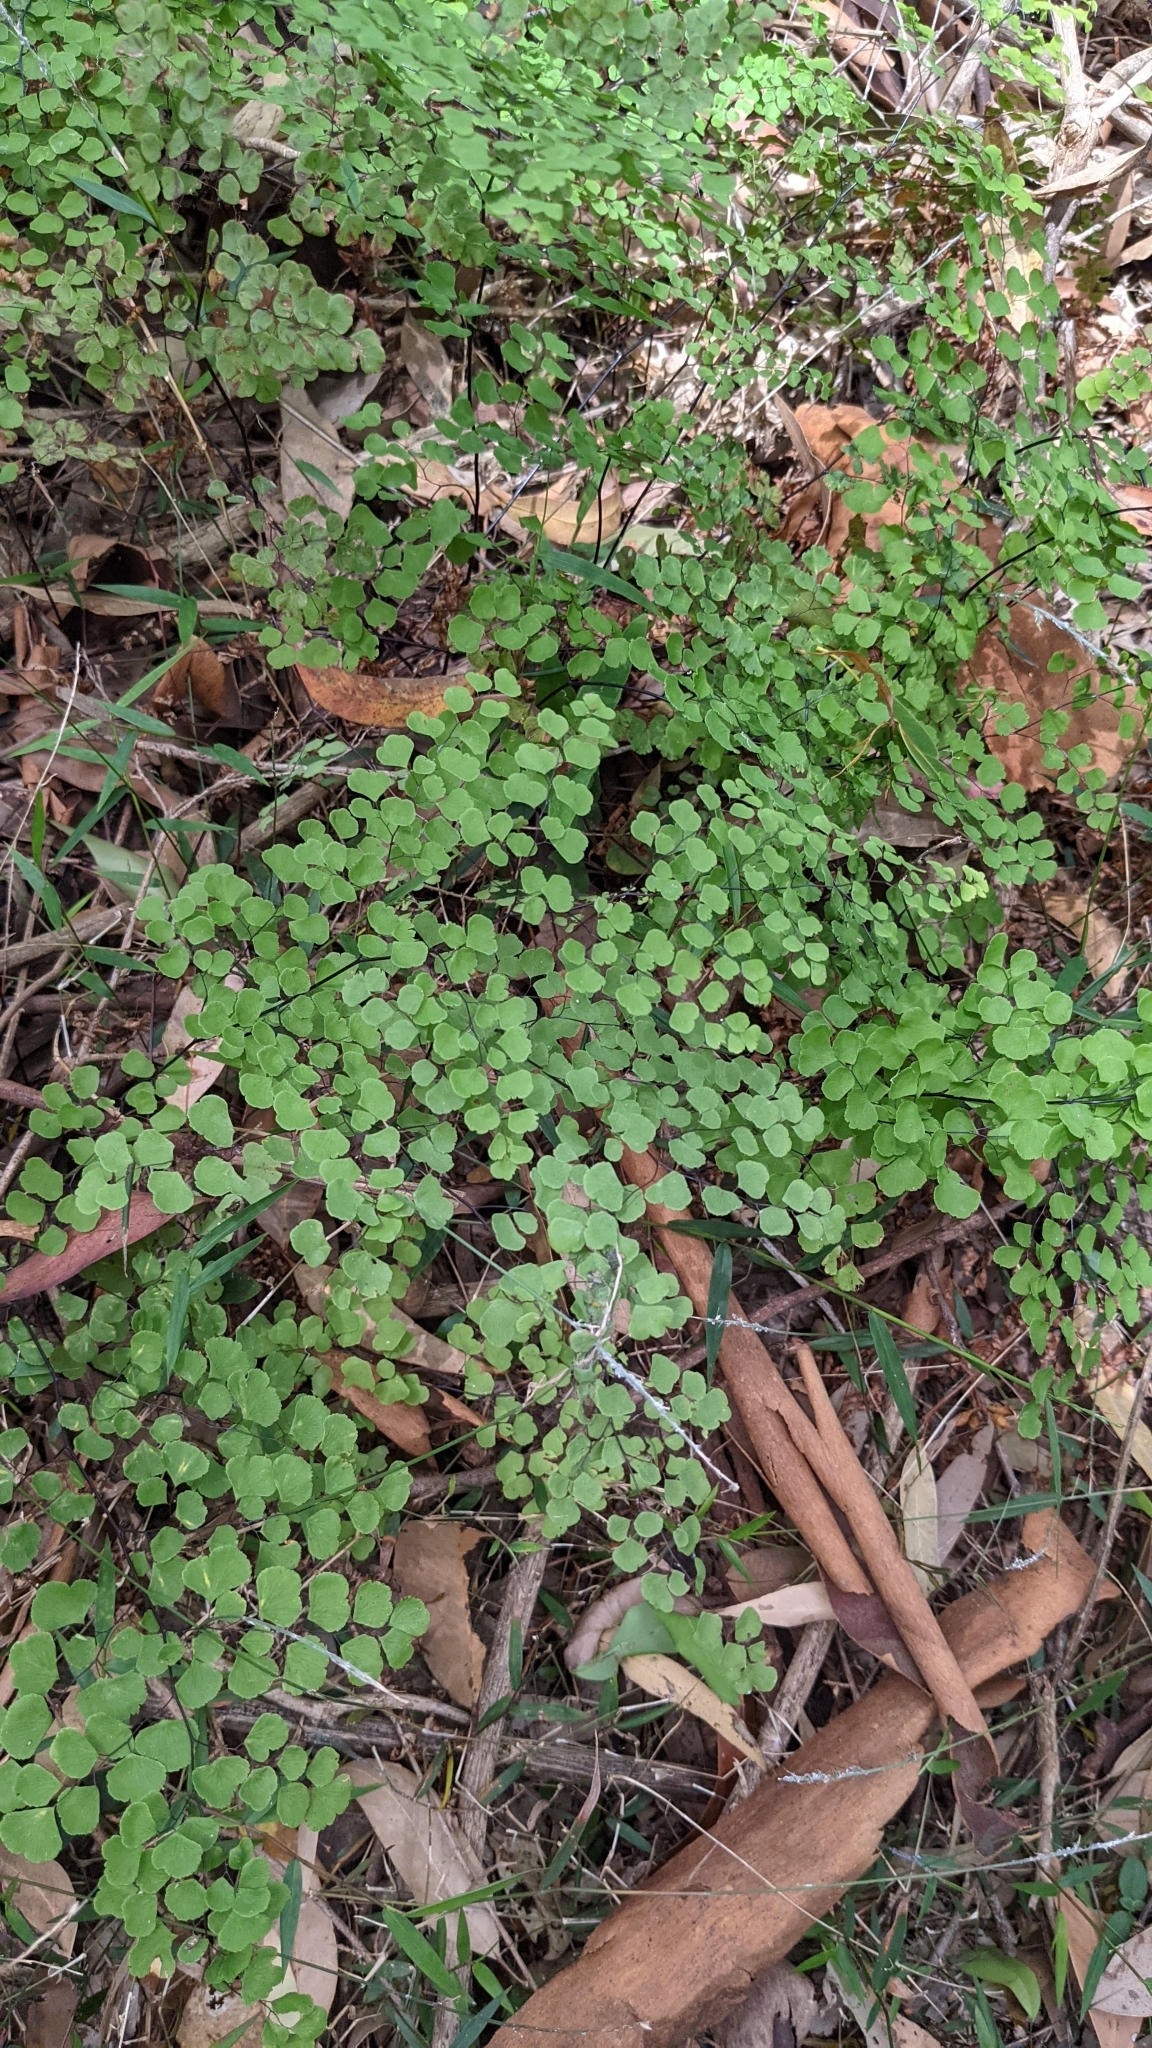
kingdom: Plantae
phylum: Tracheophyta
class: Polypodiopsida
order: Polypodiales
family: Pteridaceae
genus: Adiantum
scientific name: Adiantum aethiopicum
